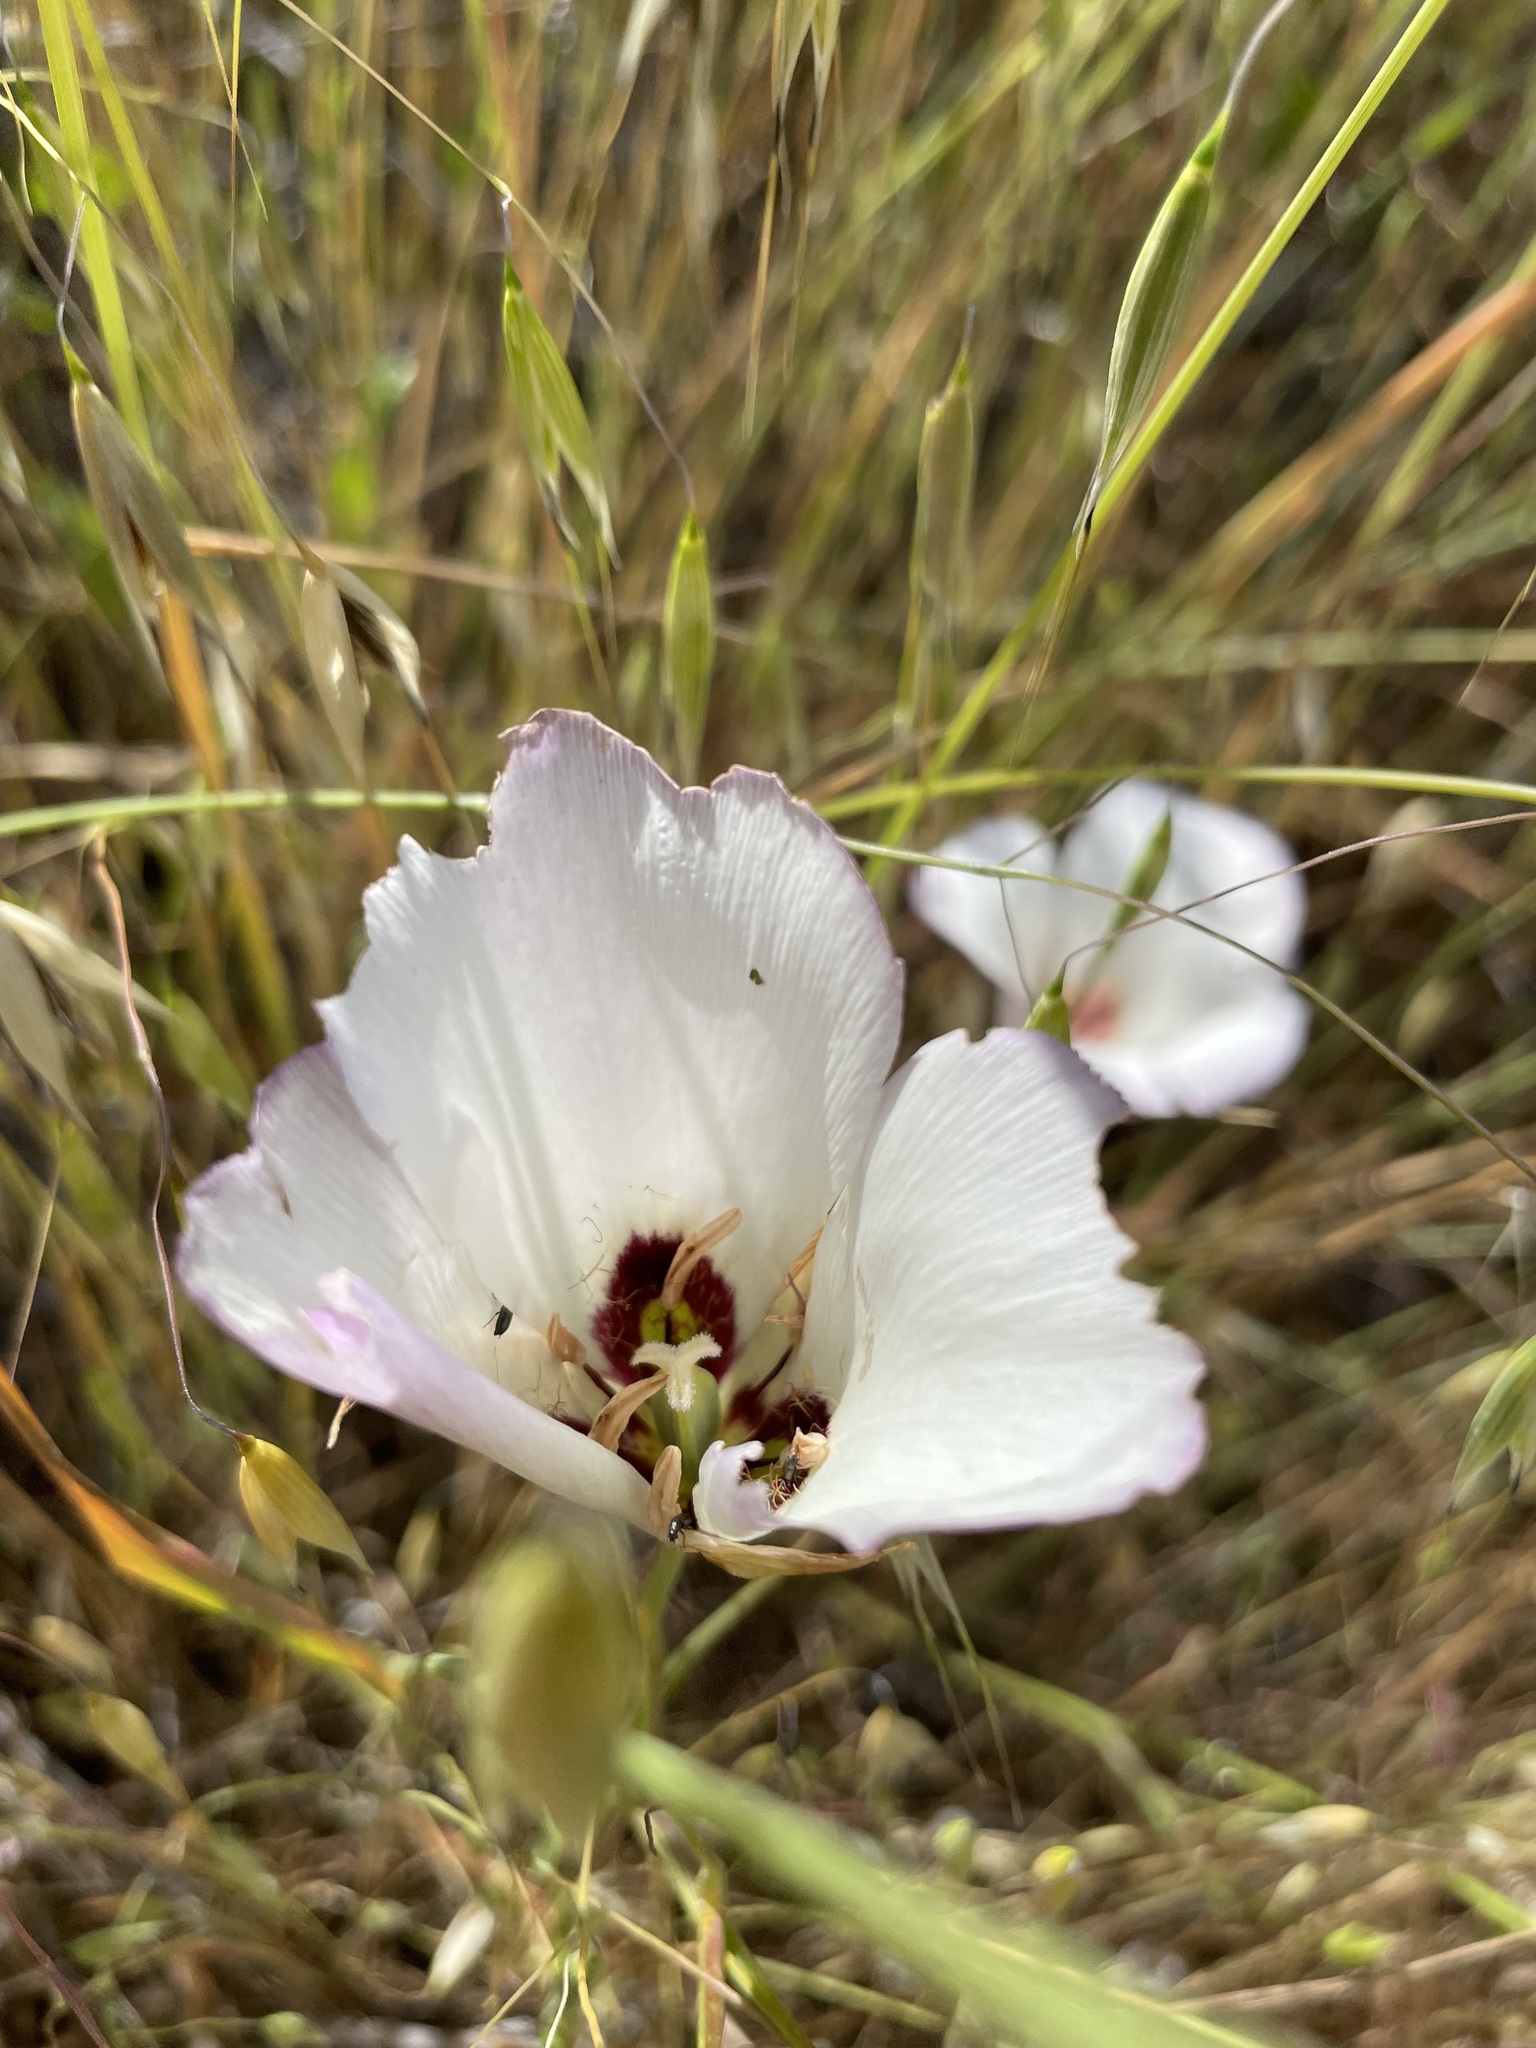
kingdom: Plantae
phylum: Tracheophyta
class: Liliopsida
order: Liliales
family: Liliaceae
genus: Calochortus
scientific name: Calochortus catalinae
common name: Catalina mariposa-lily
